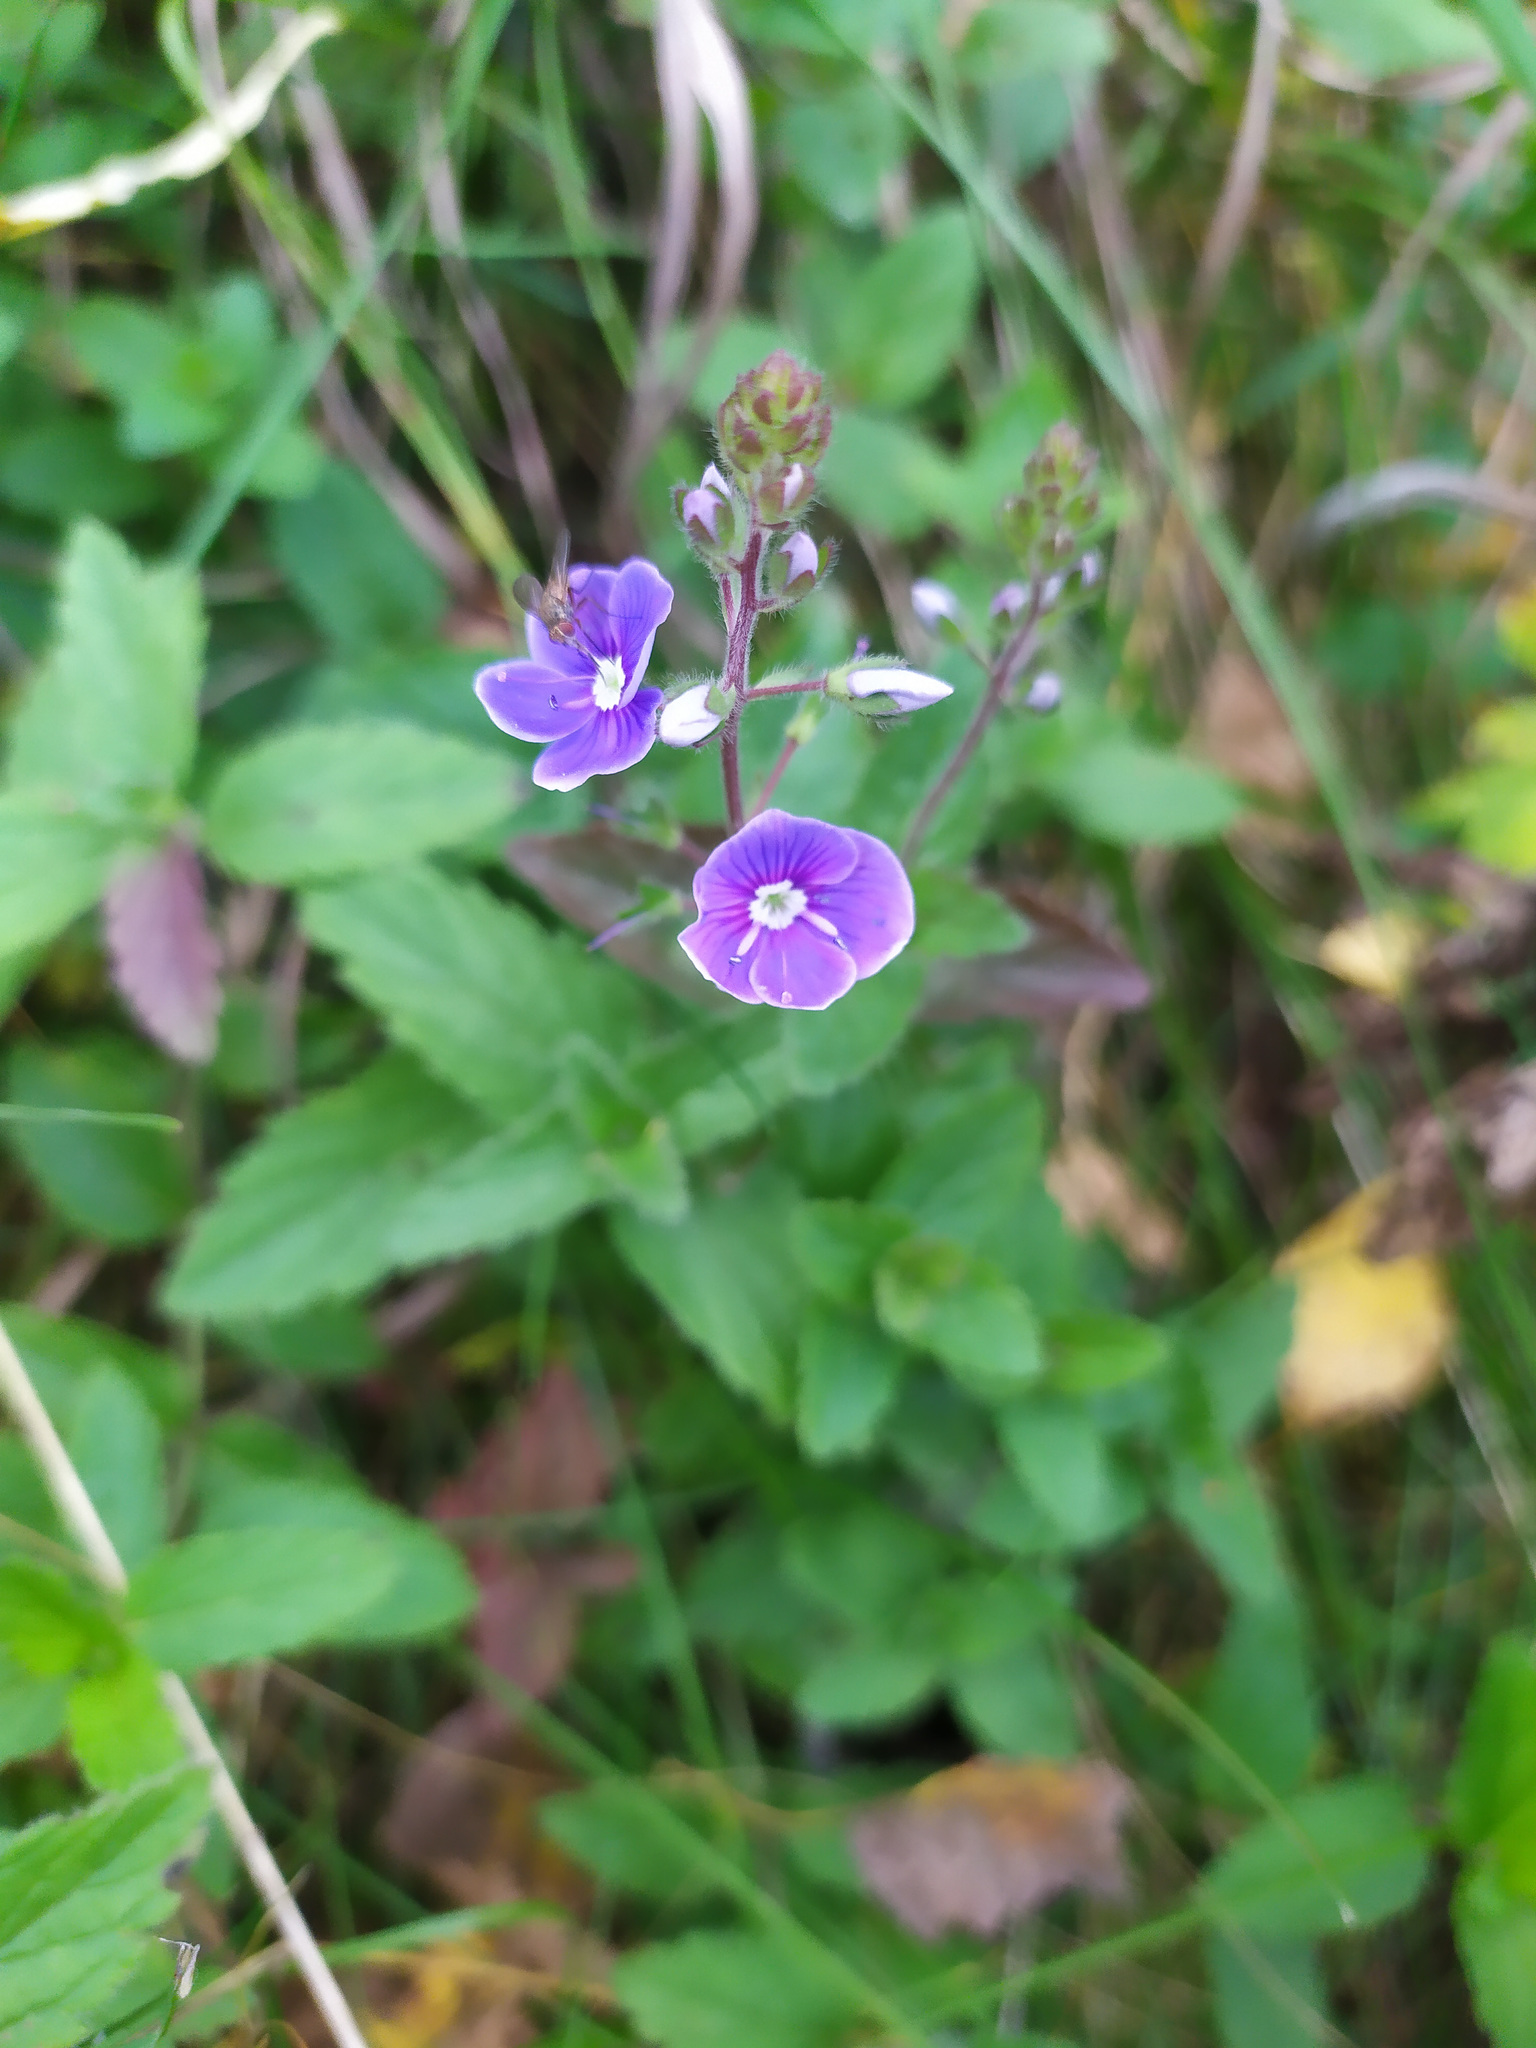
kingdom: Plantae
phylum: Tracheophyta
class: Magnoliopsida
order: Lamiales
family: Plantaginaceae
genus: Veronica
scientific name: Veronica chamaedrys
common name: Germander speedwell
